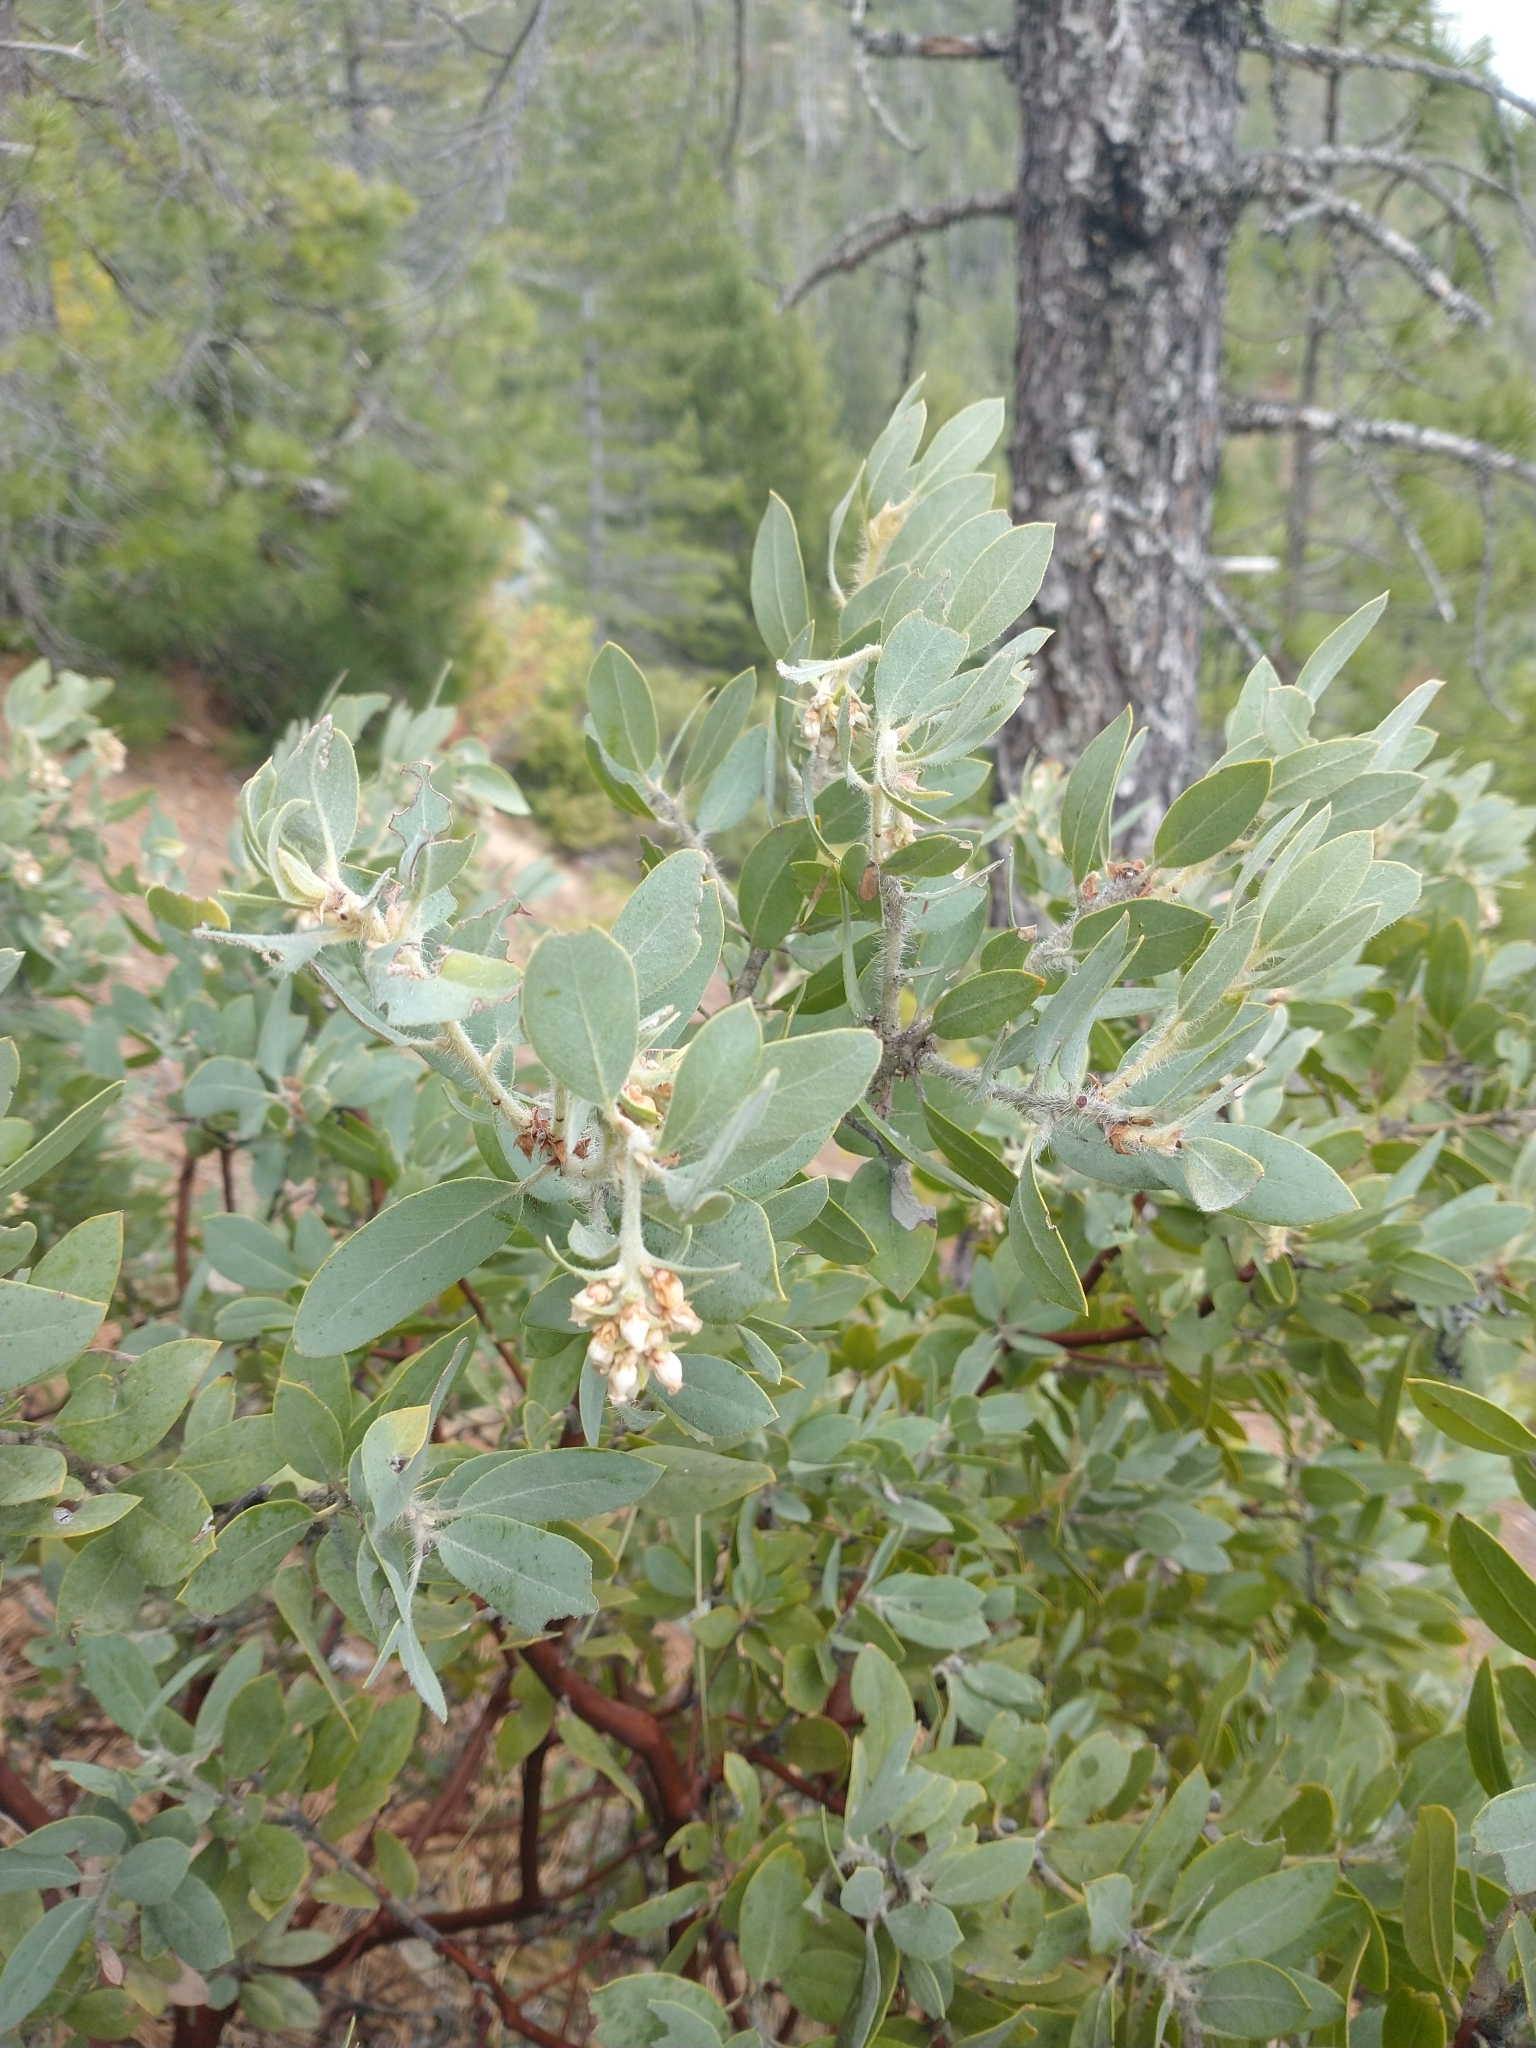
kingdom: Plantae
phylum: Tracheophyta
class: Magnoliopsida
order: Ericales
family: Ericaceae
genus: Arctostaphylos
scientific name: Arctostaphylos nortensis
